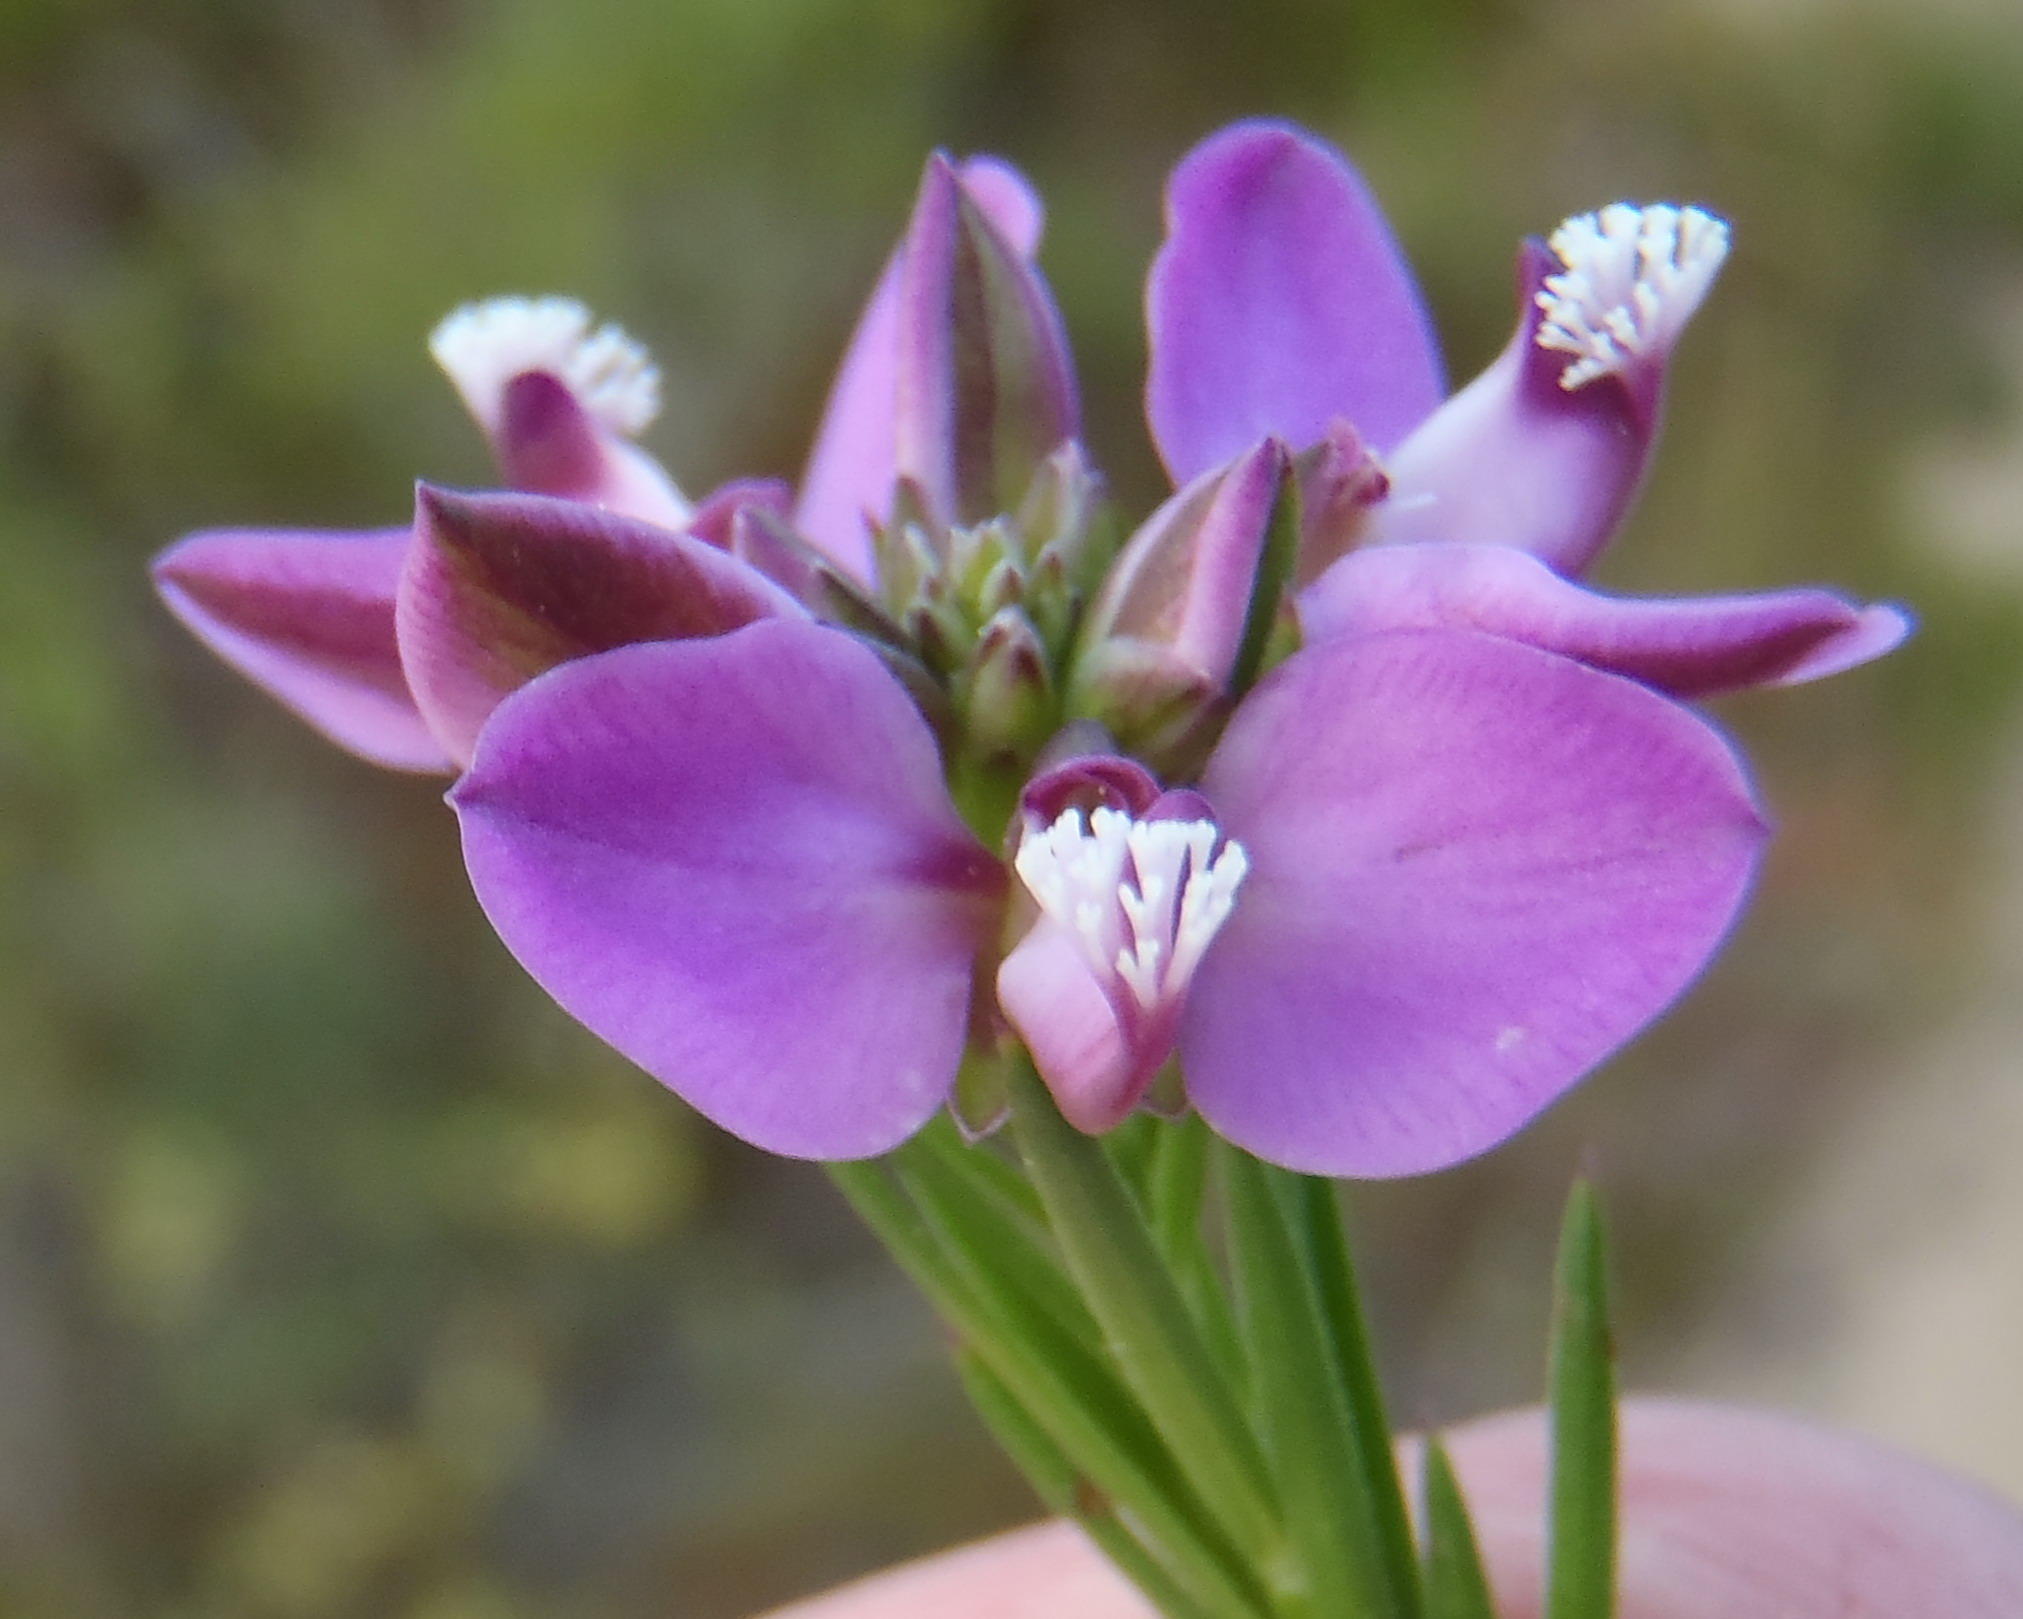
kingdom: Plantae
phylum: Tracheophyta
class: Magnoliopsida
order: Fabales
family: Polygalaceae
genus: Polygala
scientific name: Polygala ericifolia
